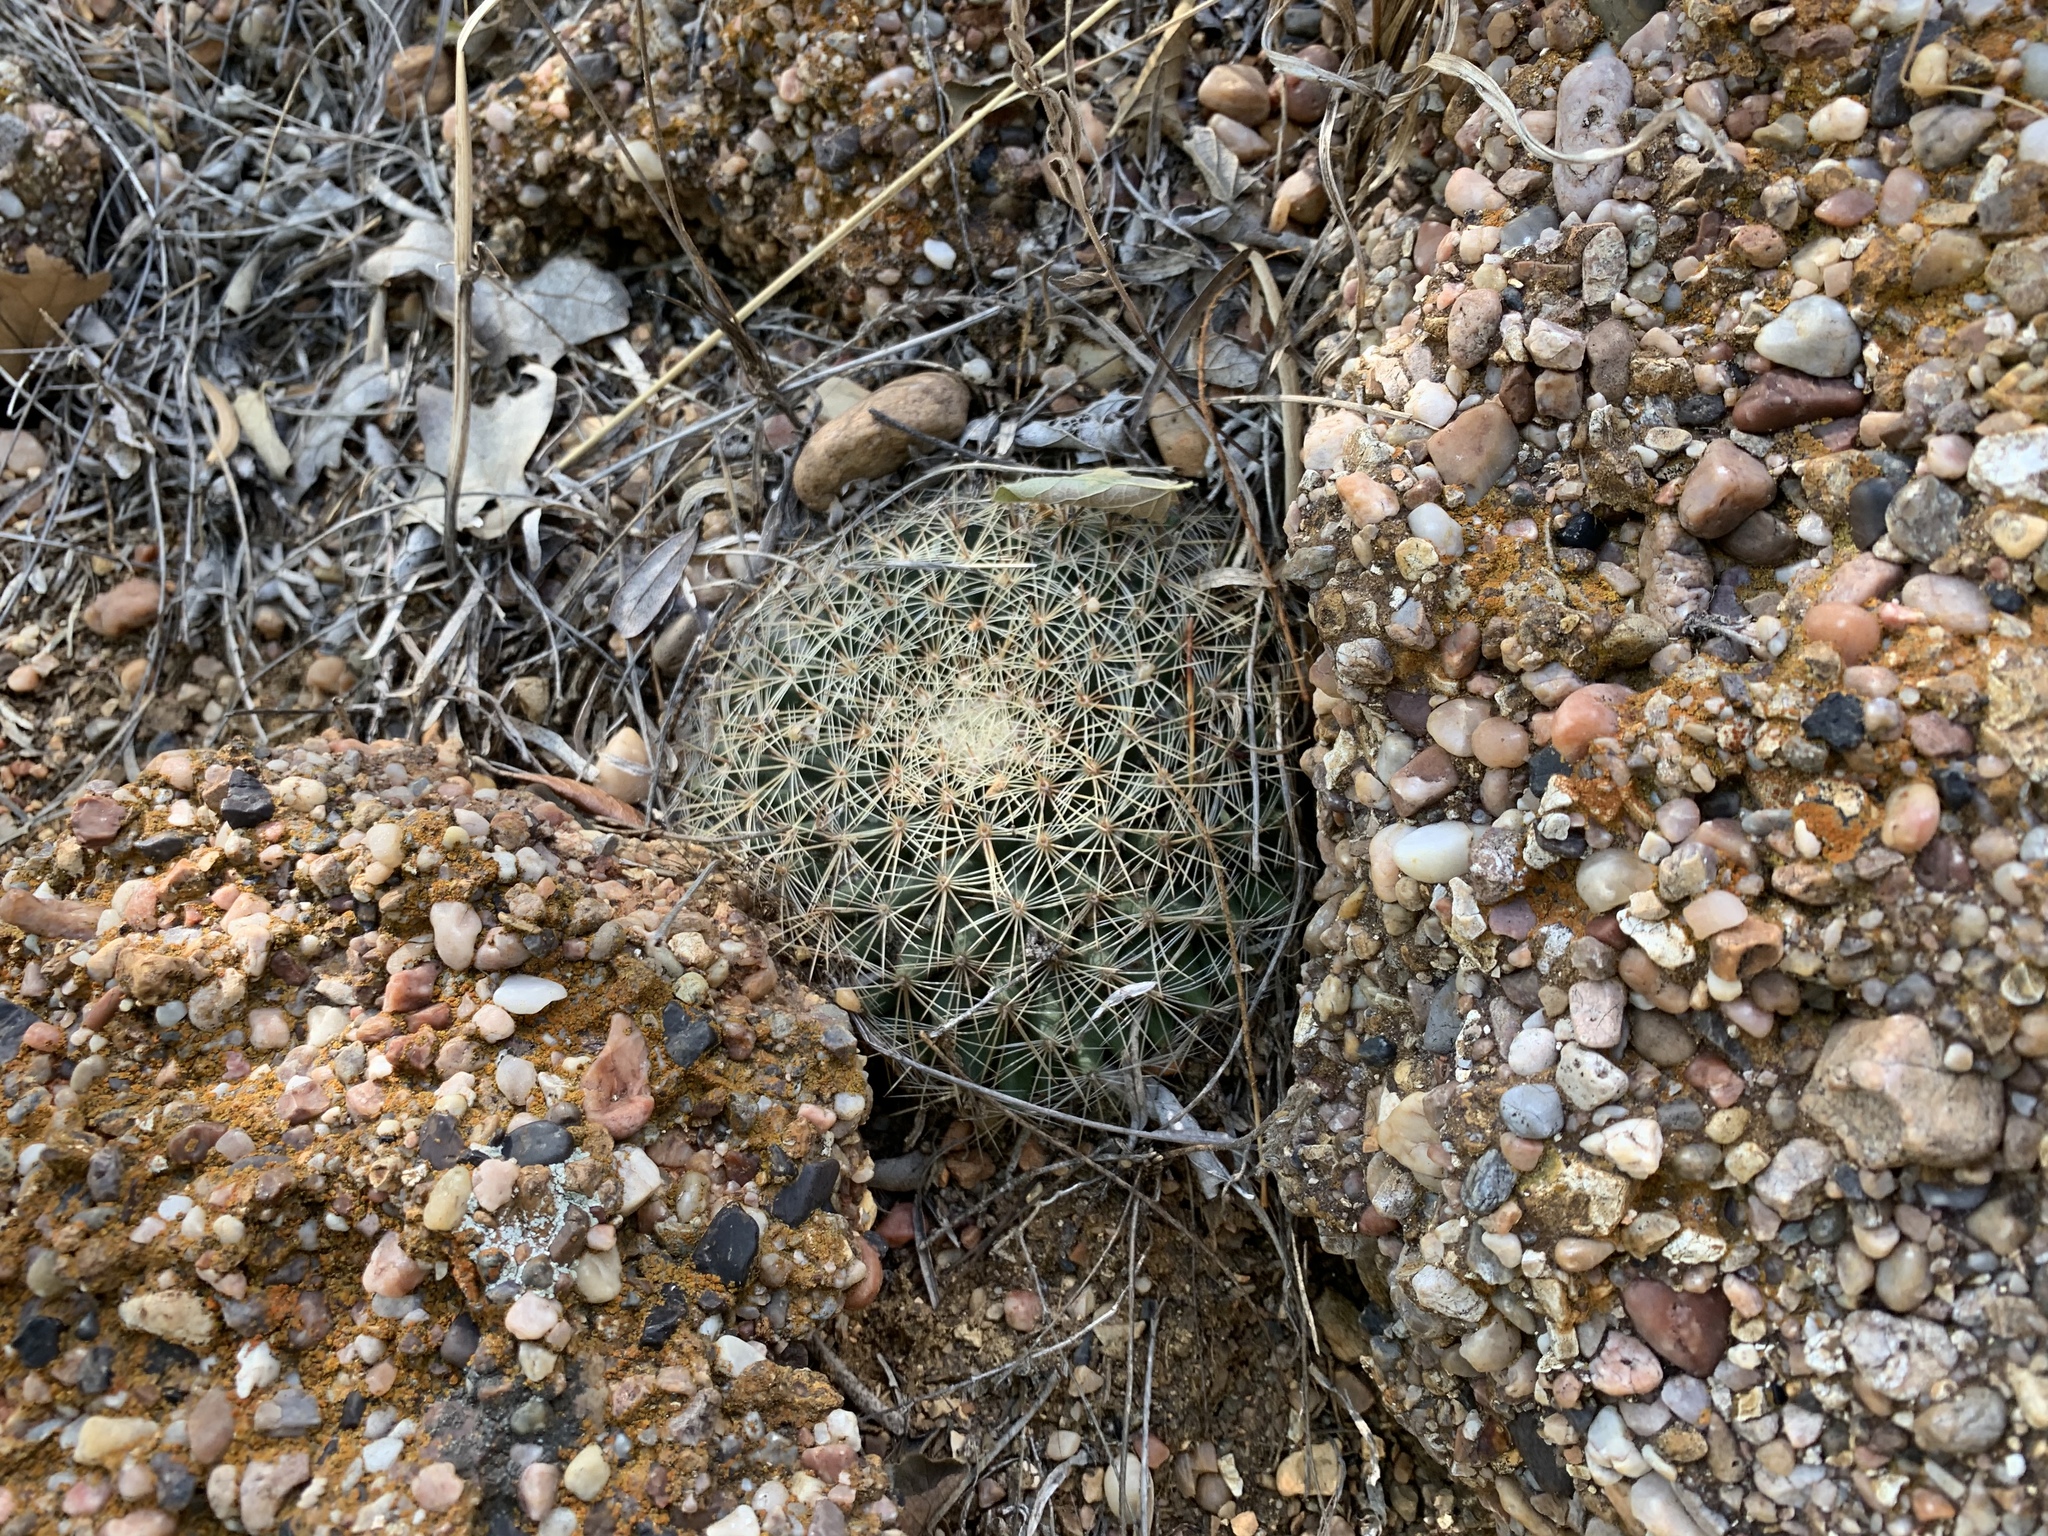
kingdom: Plantae
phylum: Tracheophyta
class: Magnoliopsida
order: Caryophyllales
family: Cactaceae
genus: Mammillaria
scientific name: Mammillaria heyderi
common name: Little nipple cactus
